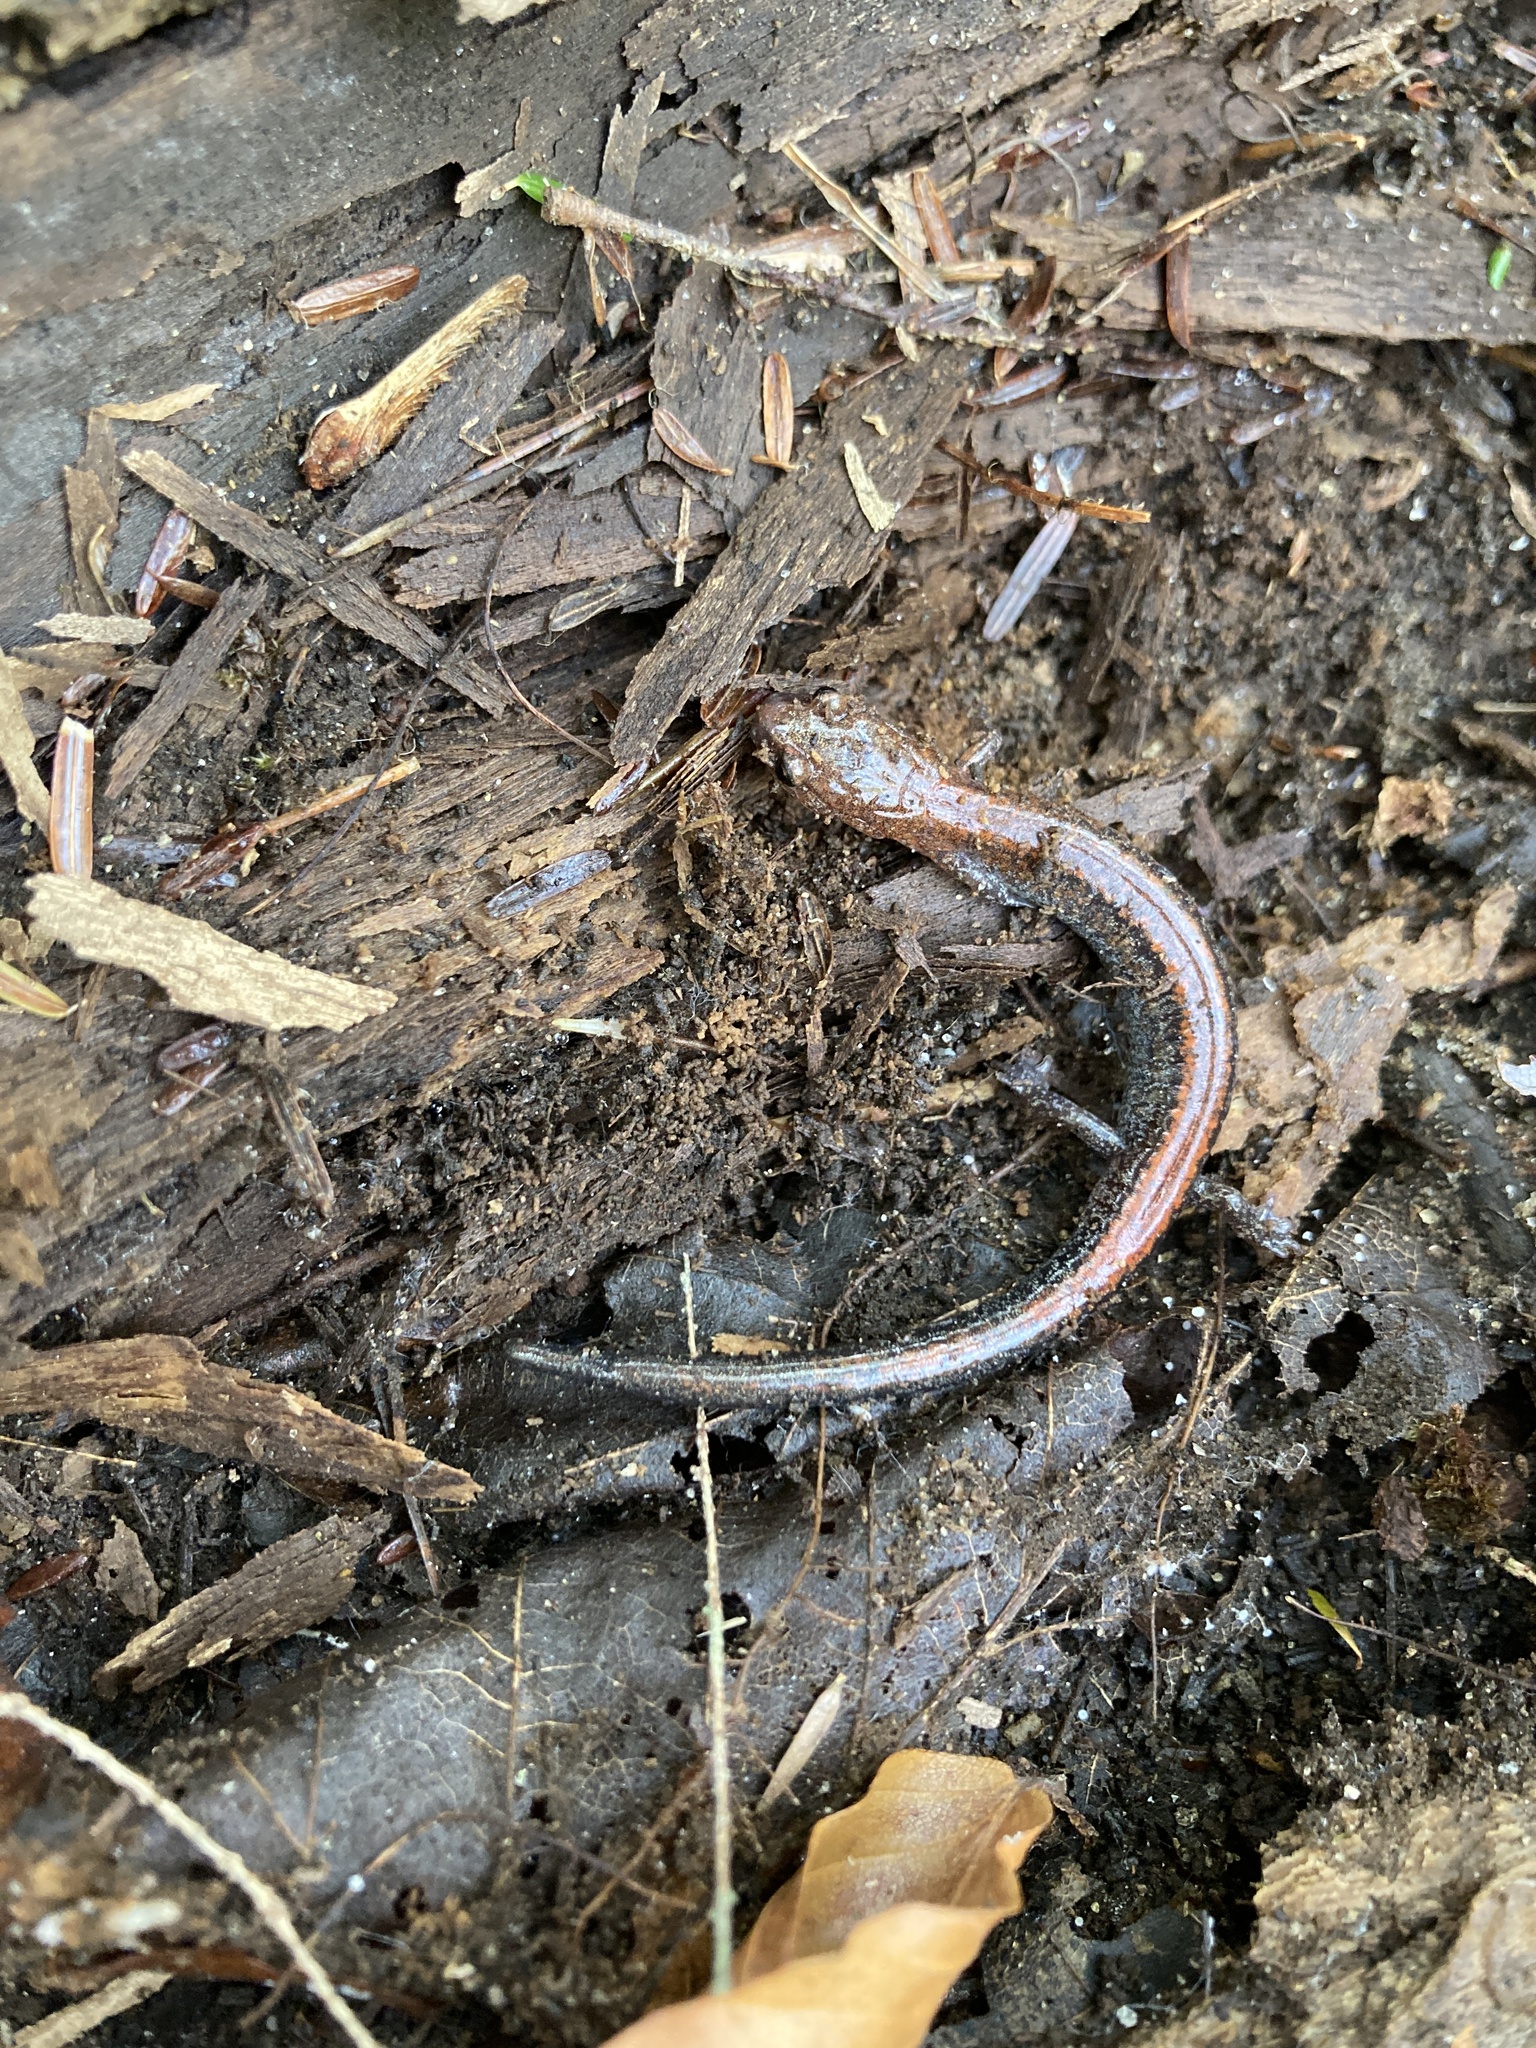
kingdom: Animalia
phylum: Chordata
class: Amphibia
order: Caudata
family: Plethodontidae
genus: Plethodon
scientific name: Plethodon cinereus
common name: Redback salamander
